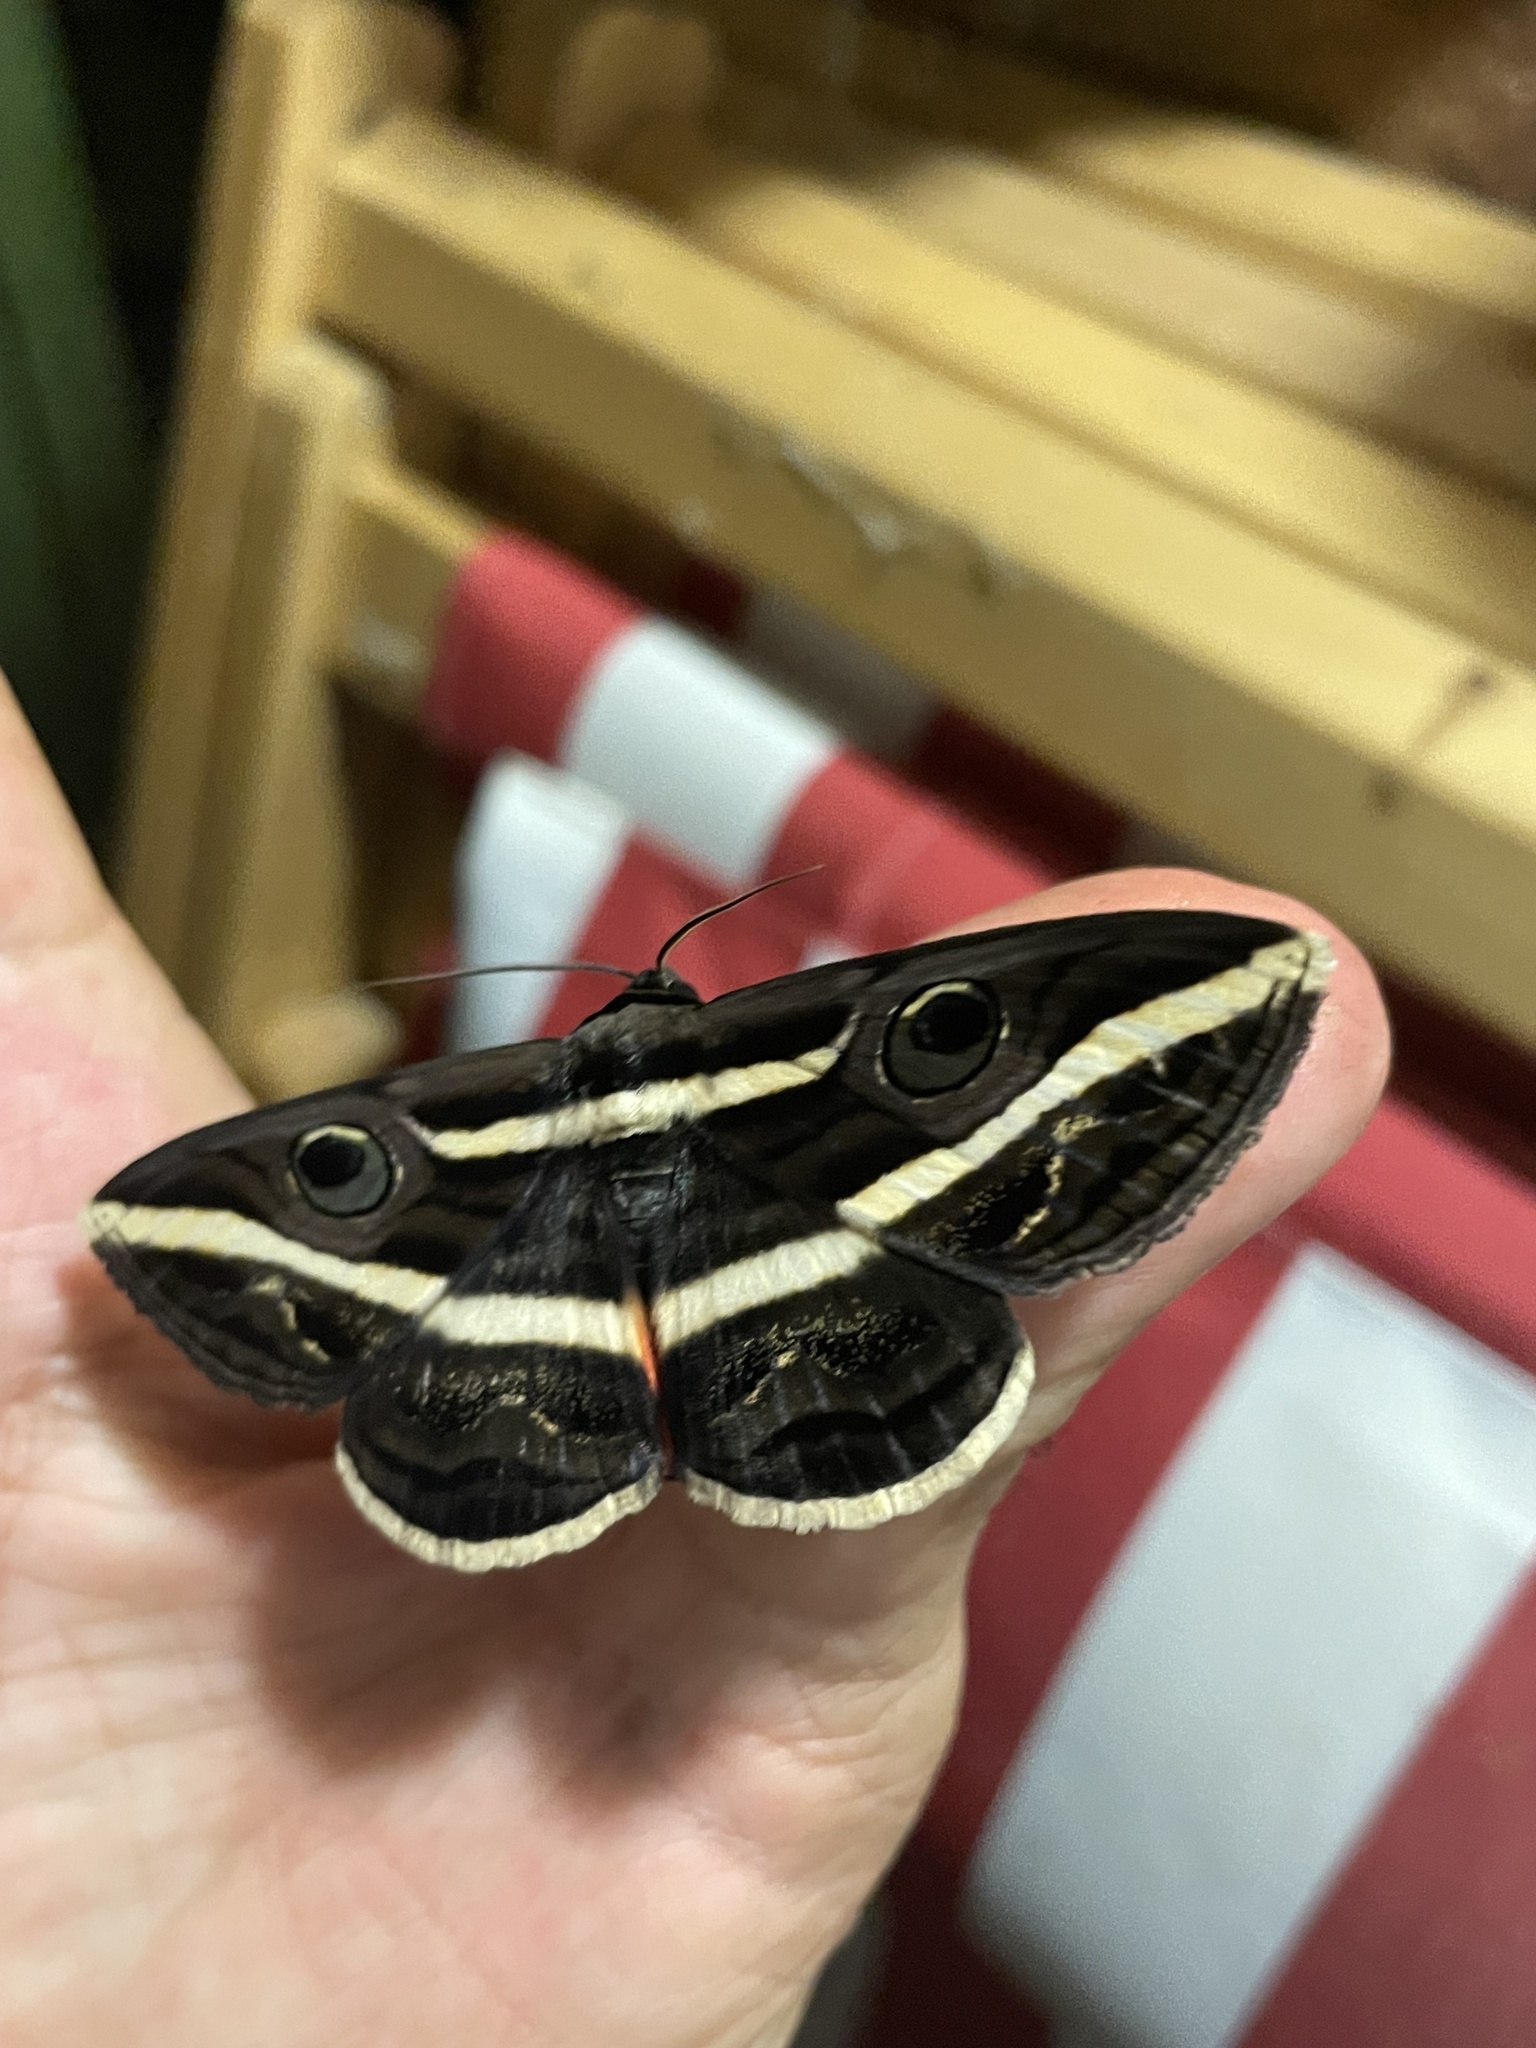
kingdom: Animalia
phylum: Arthropoda
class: Insecta
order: Lepidoptera
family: Erebidae
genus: Donuca
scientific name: Donuca rubropicta
